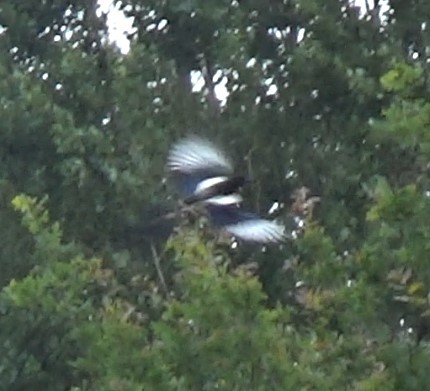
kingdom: Animalia
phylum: Chordata
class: Aves
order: Passeriformes
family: Corvidae
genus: Pica
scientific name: Pica pica
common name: Eurasian magpie
